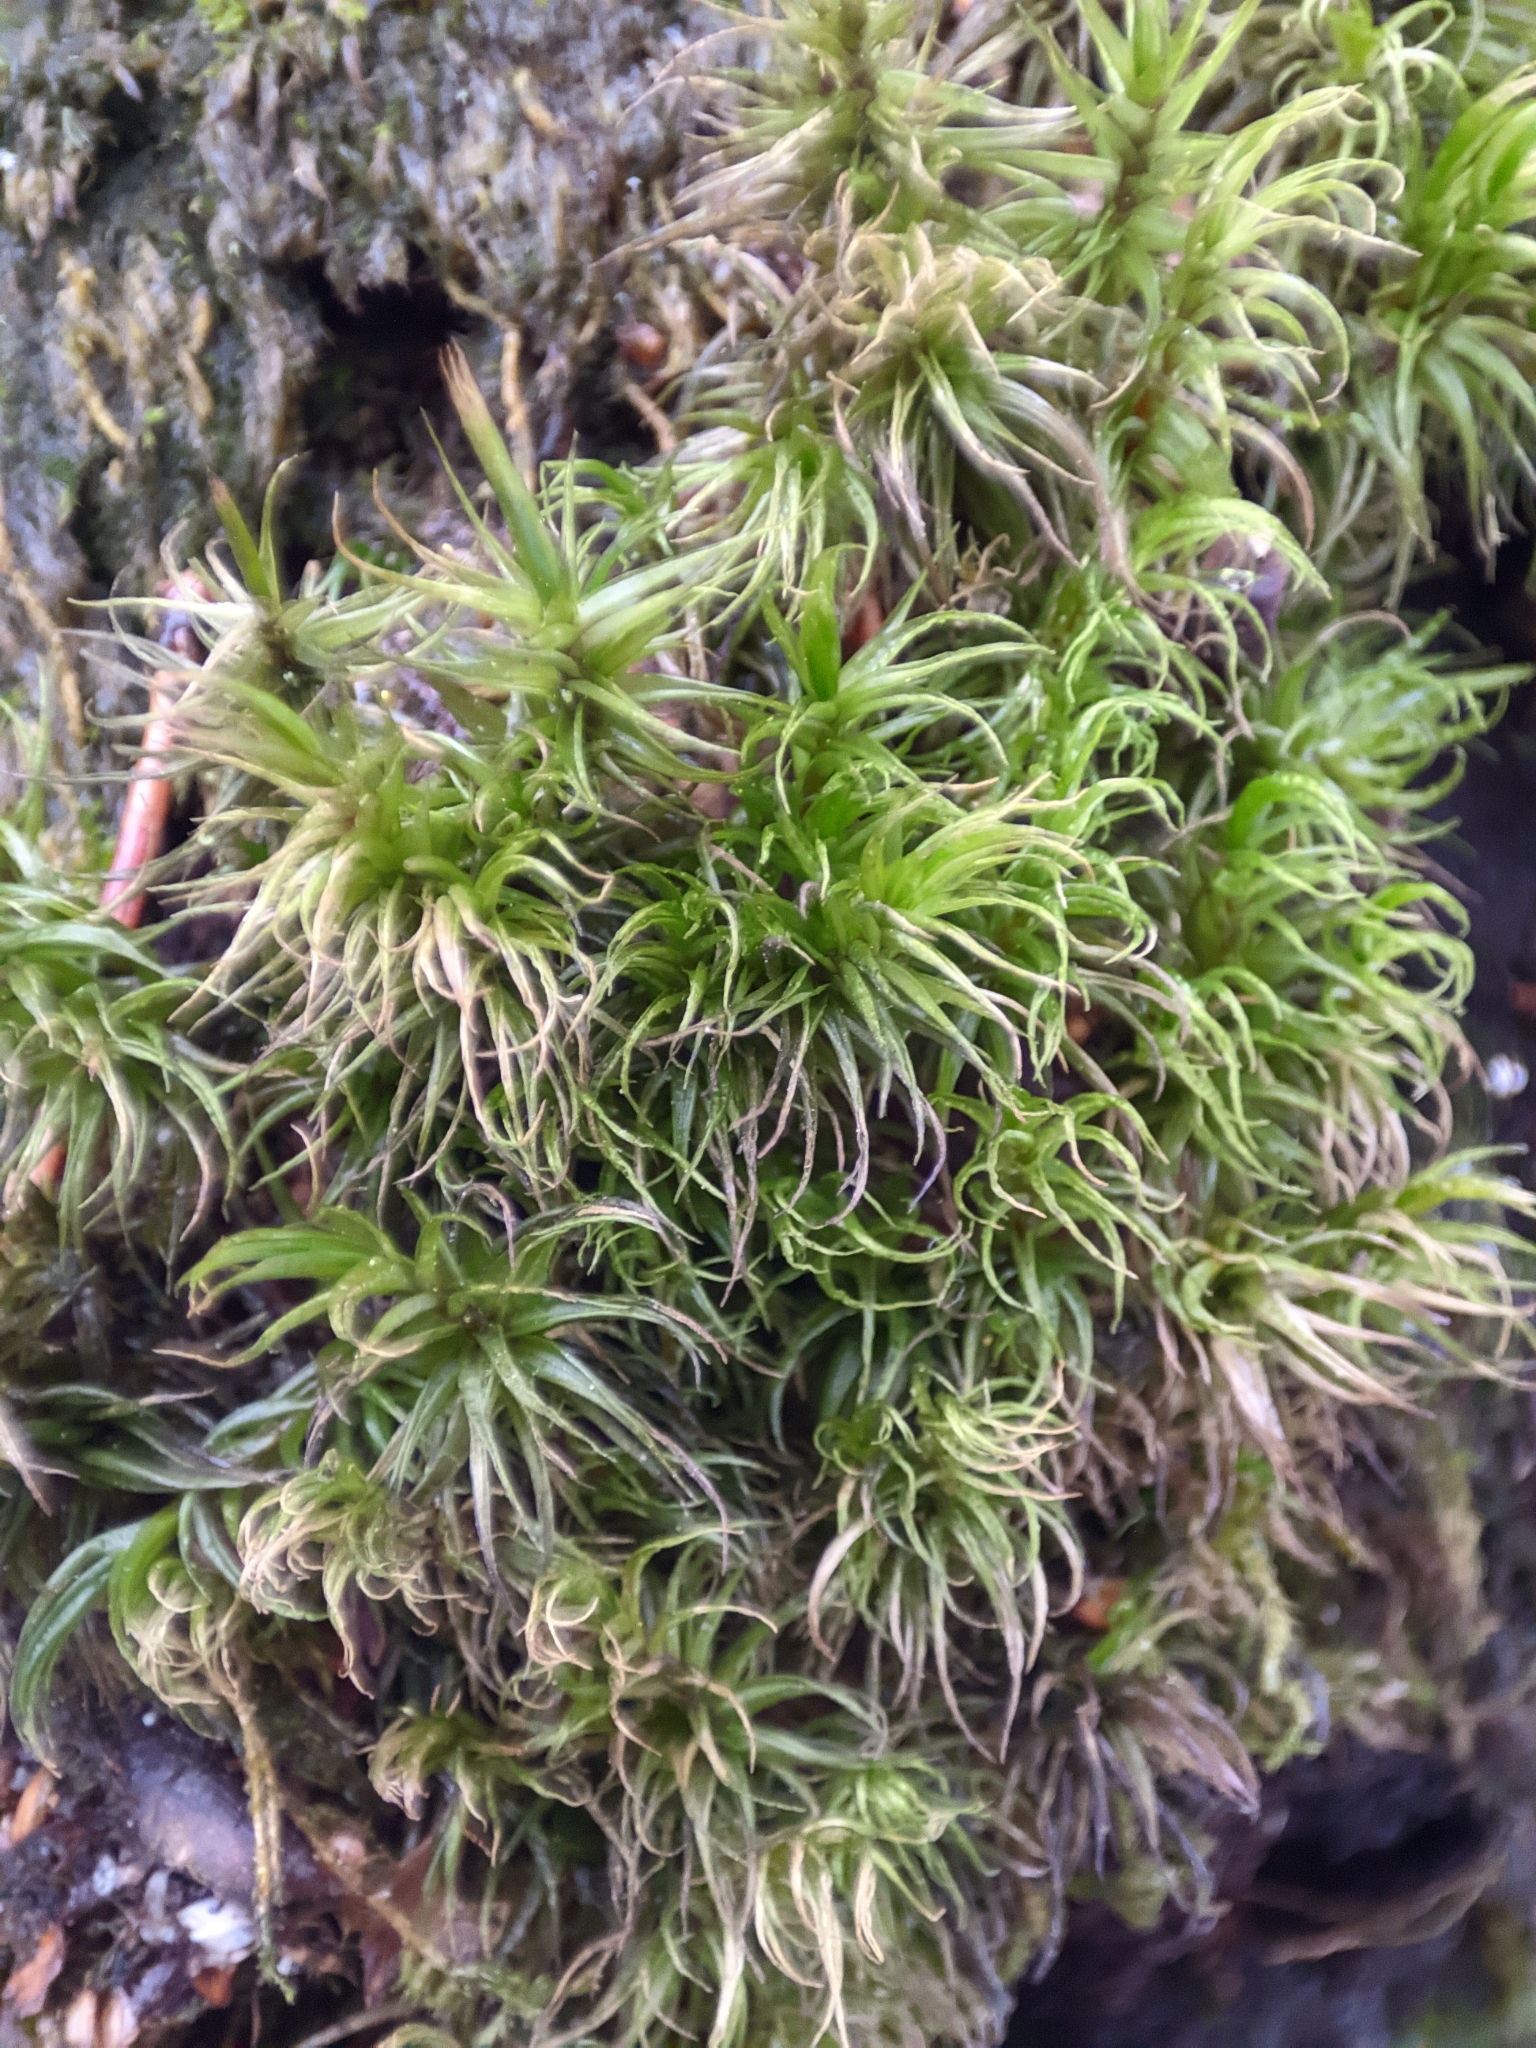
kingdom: Plantae
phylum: Bryophyta
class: Bryopsida
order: Dicranales
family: Dicranaceae
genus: Dicranum
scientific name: Dicranum scoparium
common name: Broom fork-moss
